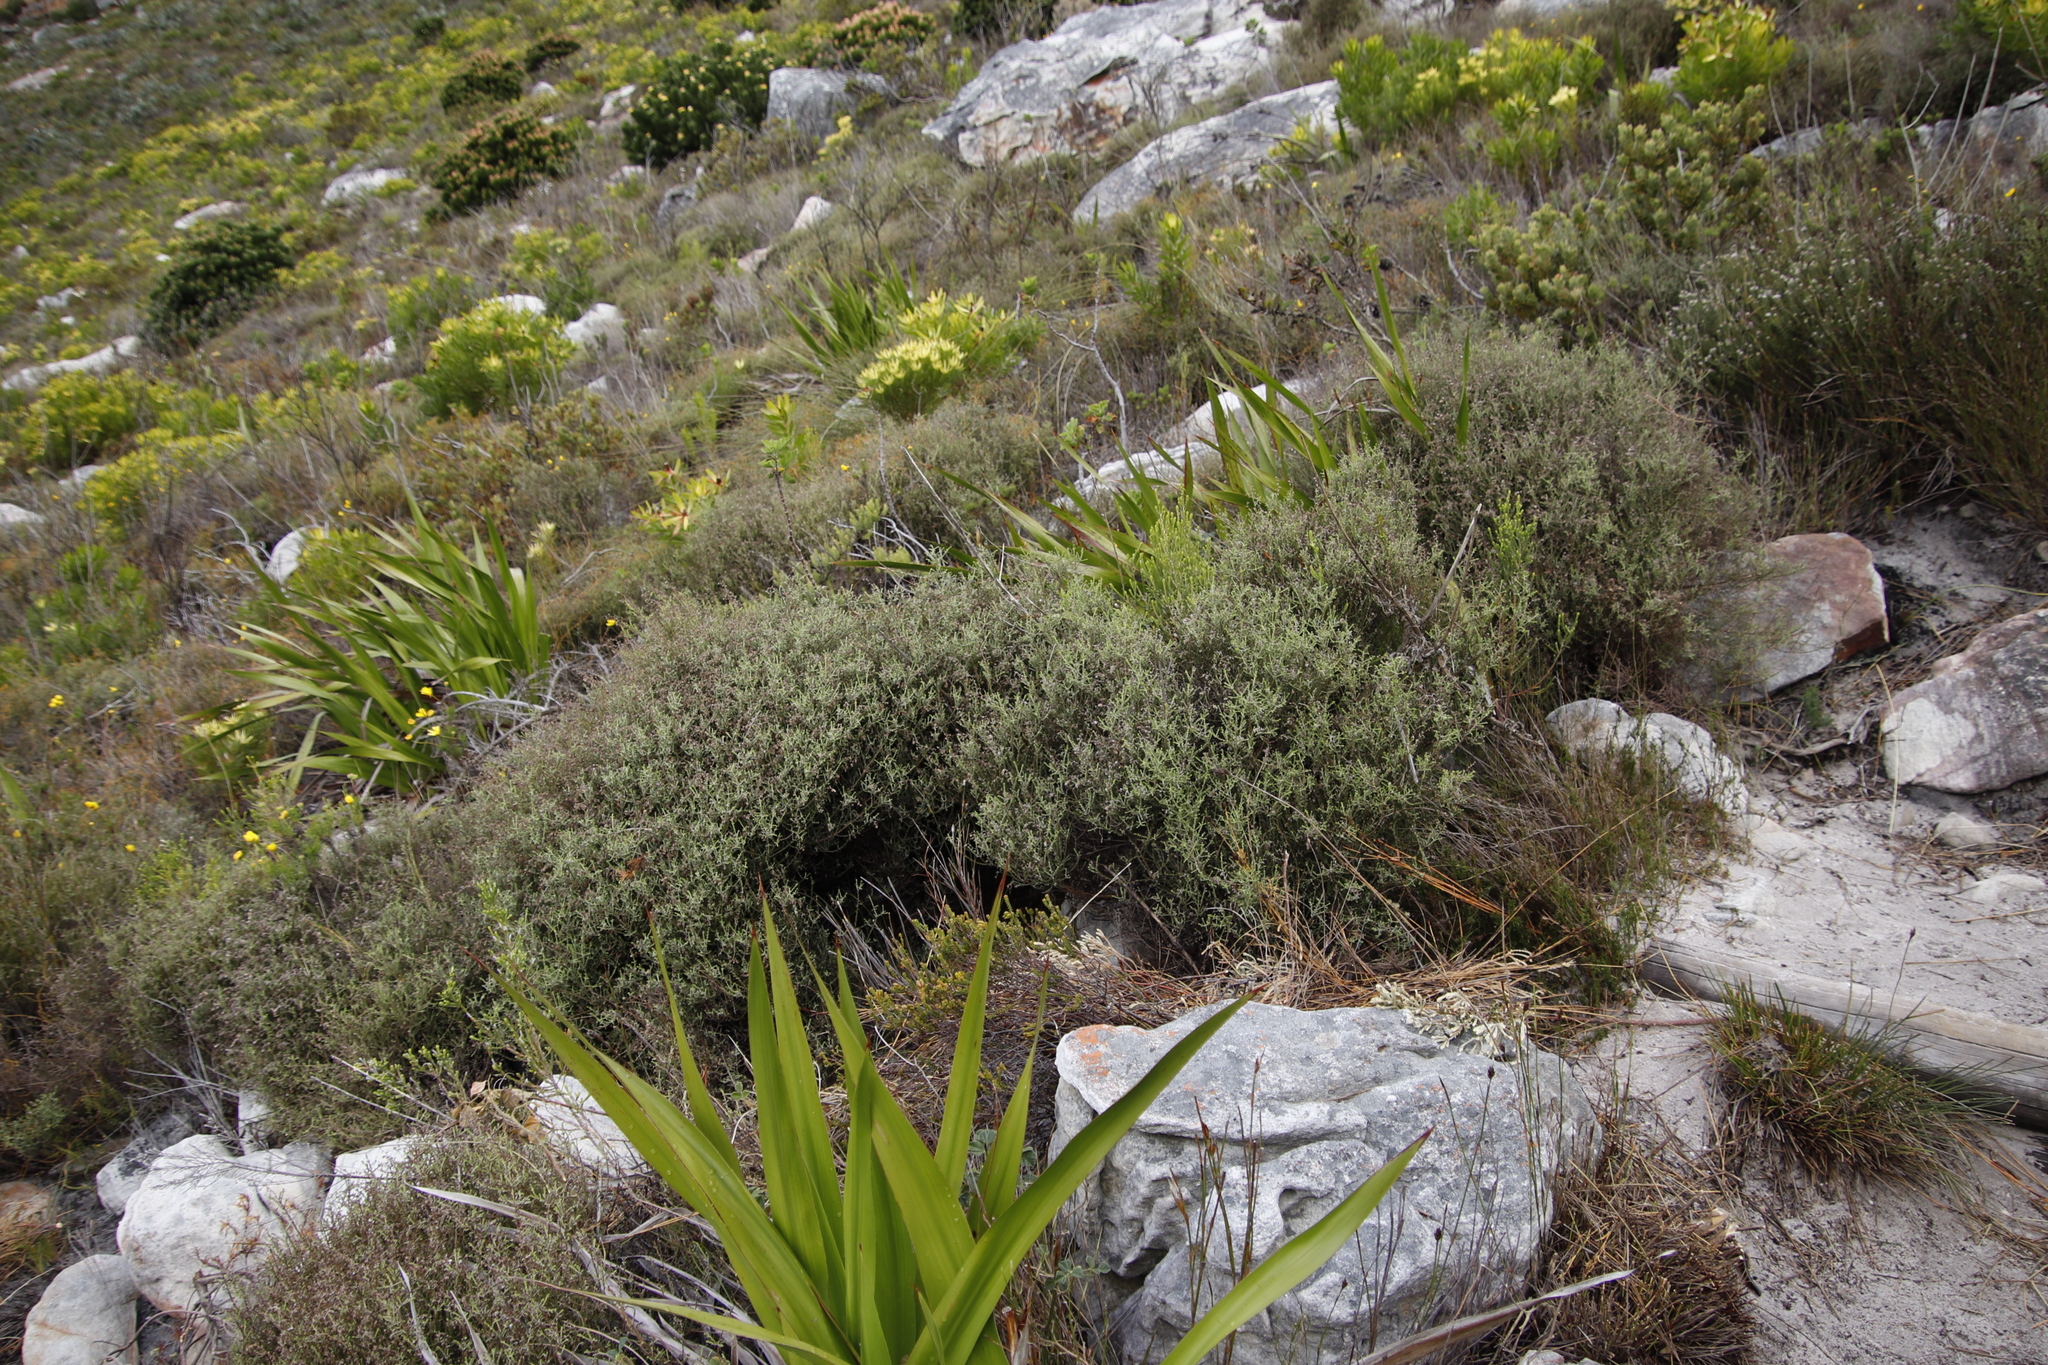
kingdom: Plantae
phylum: Tracheophyta
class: Magnoliopsida
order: Asterales
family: Asteraceae
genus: Myrovernix
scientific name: Myrovernix scaber
